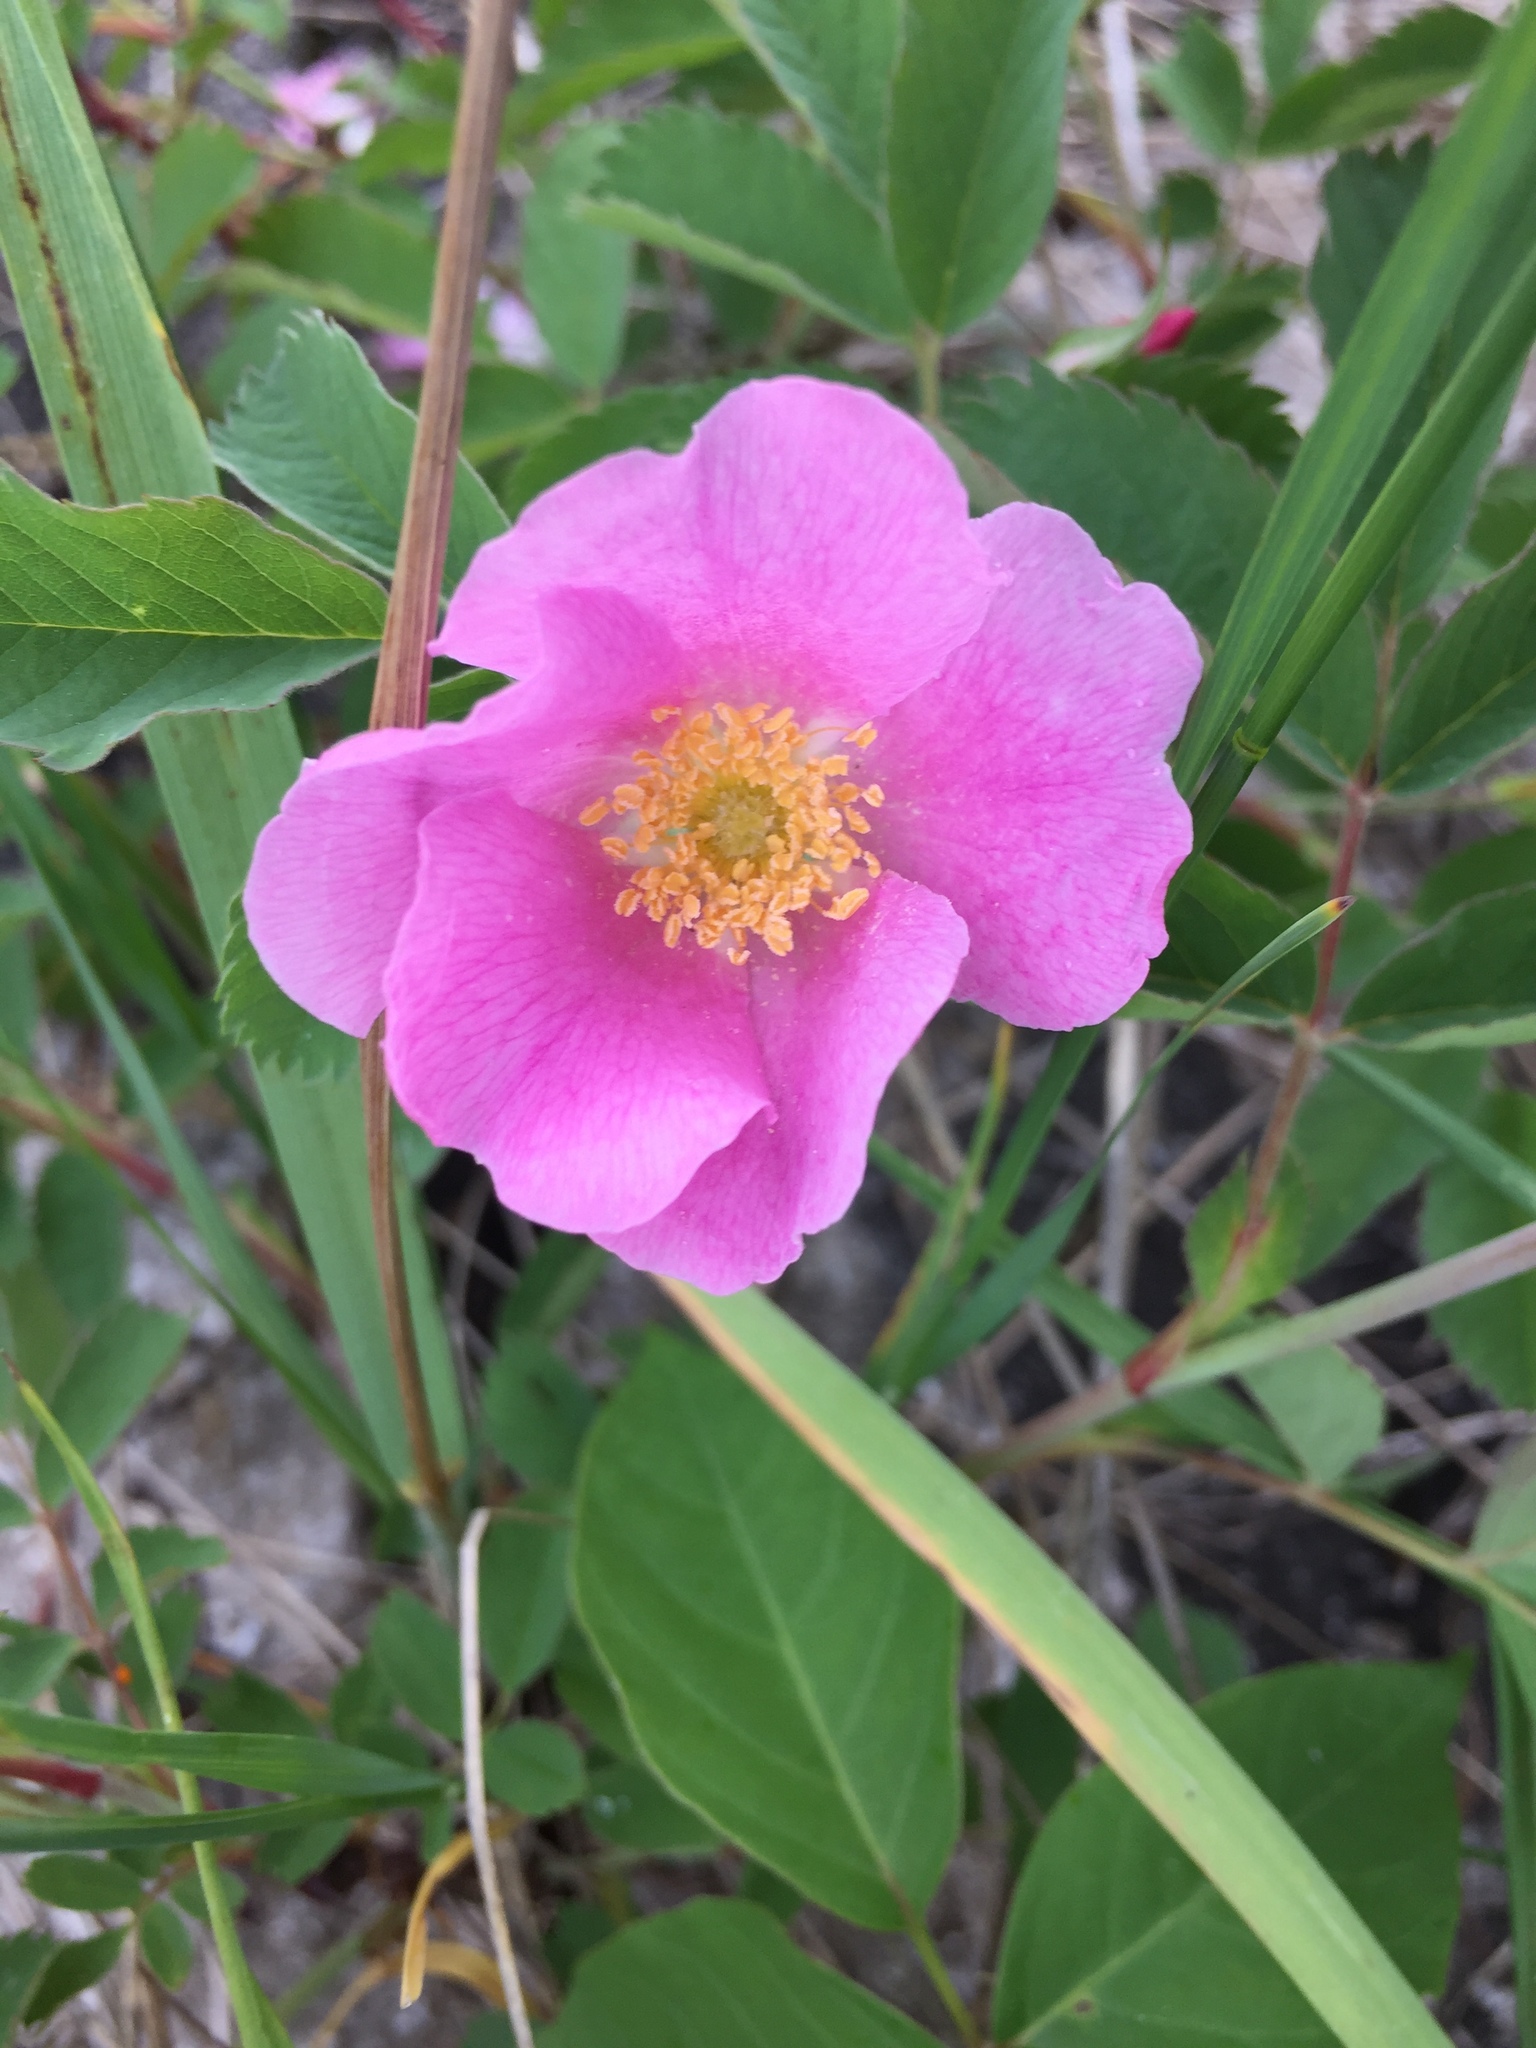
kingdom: Plantae
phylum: Tracheophyta
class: Magnoliopsida
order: Rosales
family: Rosaceae
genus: Rosa
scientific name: Rosa blanda
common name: Smooth rose
